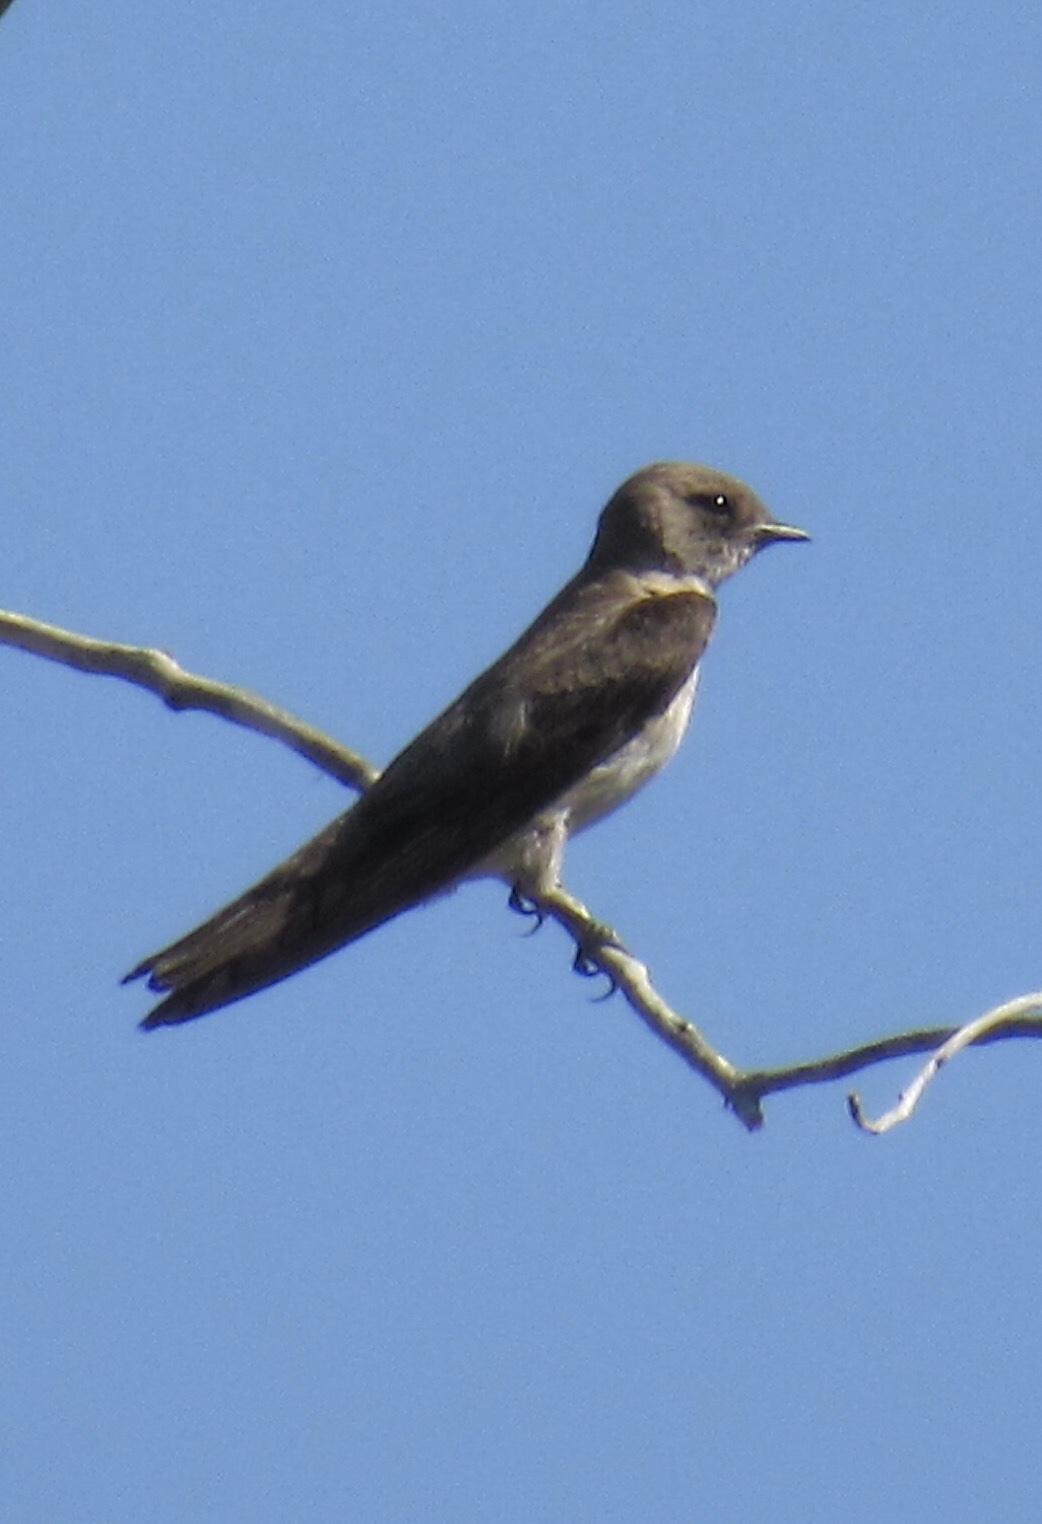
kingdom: Animalia
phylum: Chordata
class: Aves
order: Passeriformes
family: Hirundinidae
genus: Stelgidopteryx
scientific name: Stelgidopteryx serripennis
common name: Northern rough-winged swallow
